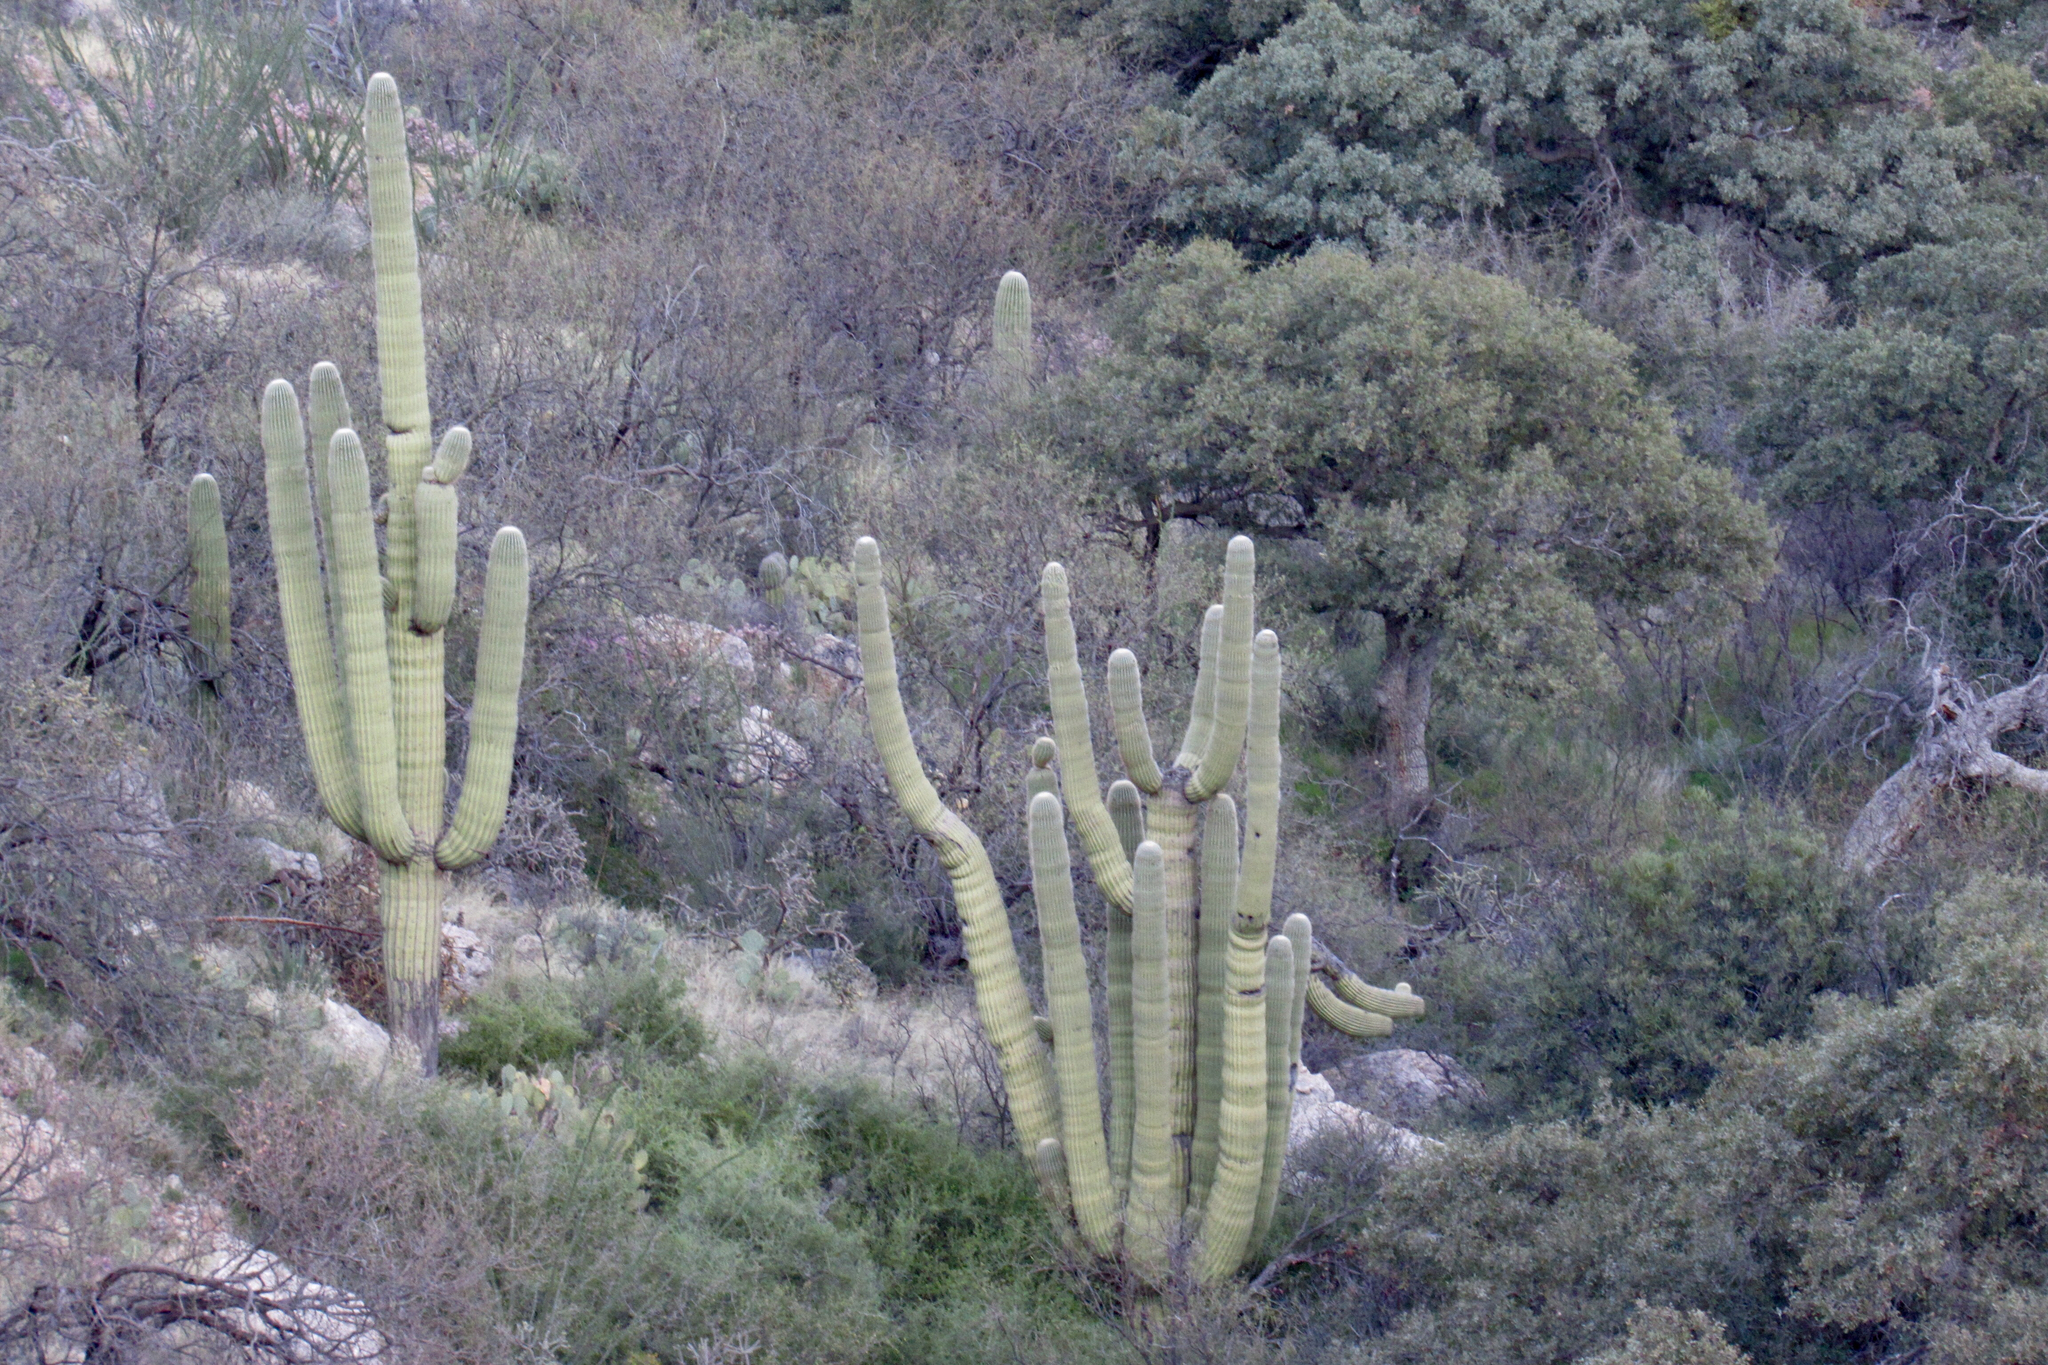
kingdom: Plantae
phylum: Tracheophyta
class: Magnoliopsida
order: Caryophyllales
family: Cactaceae
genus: Carnegiea
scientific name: Carnegiea gigantea
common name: Saguaro
